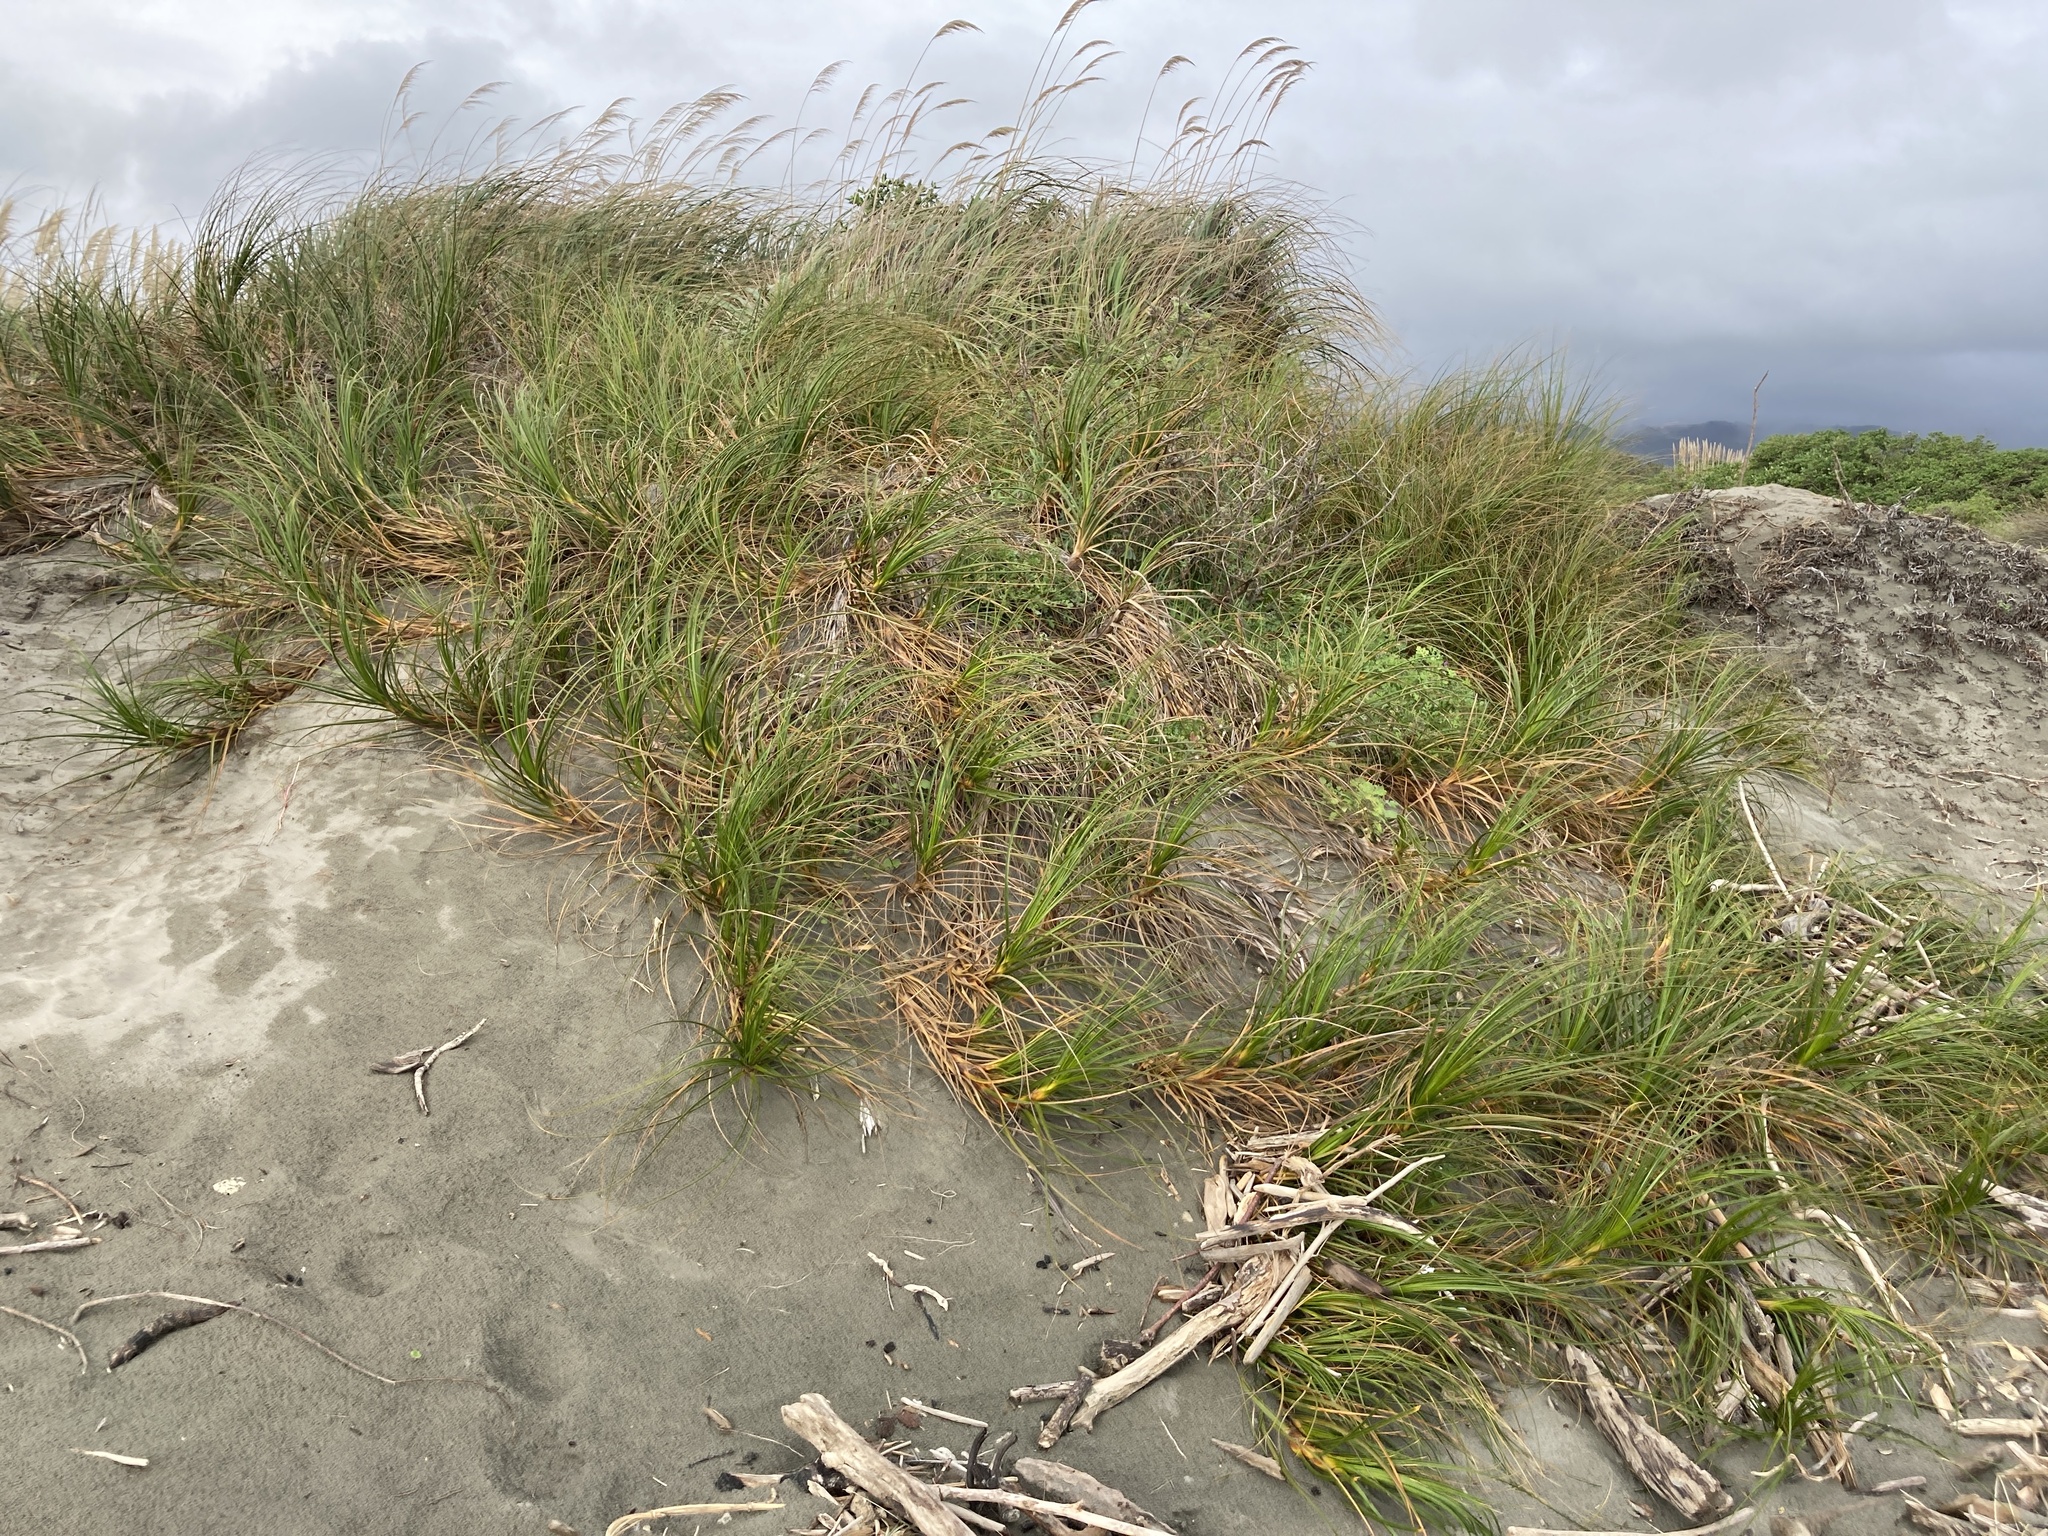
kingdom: Plantae
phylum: Tracheophyta
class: Liliopsida
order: Poales
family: Cyperaceae
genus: Ficinia
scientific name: Ficinia spiralis
